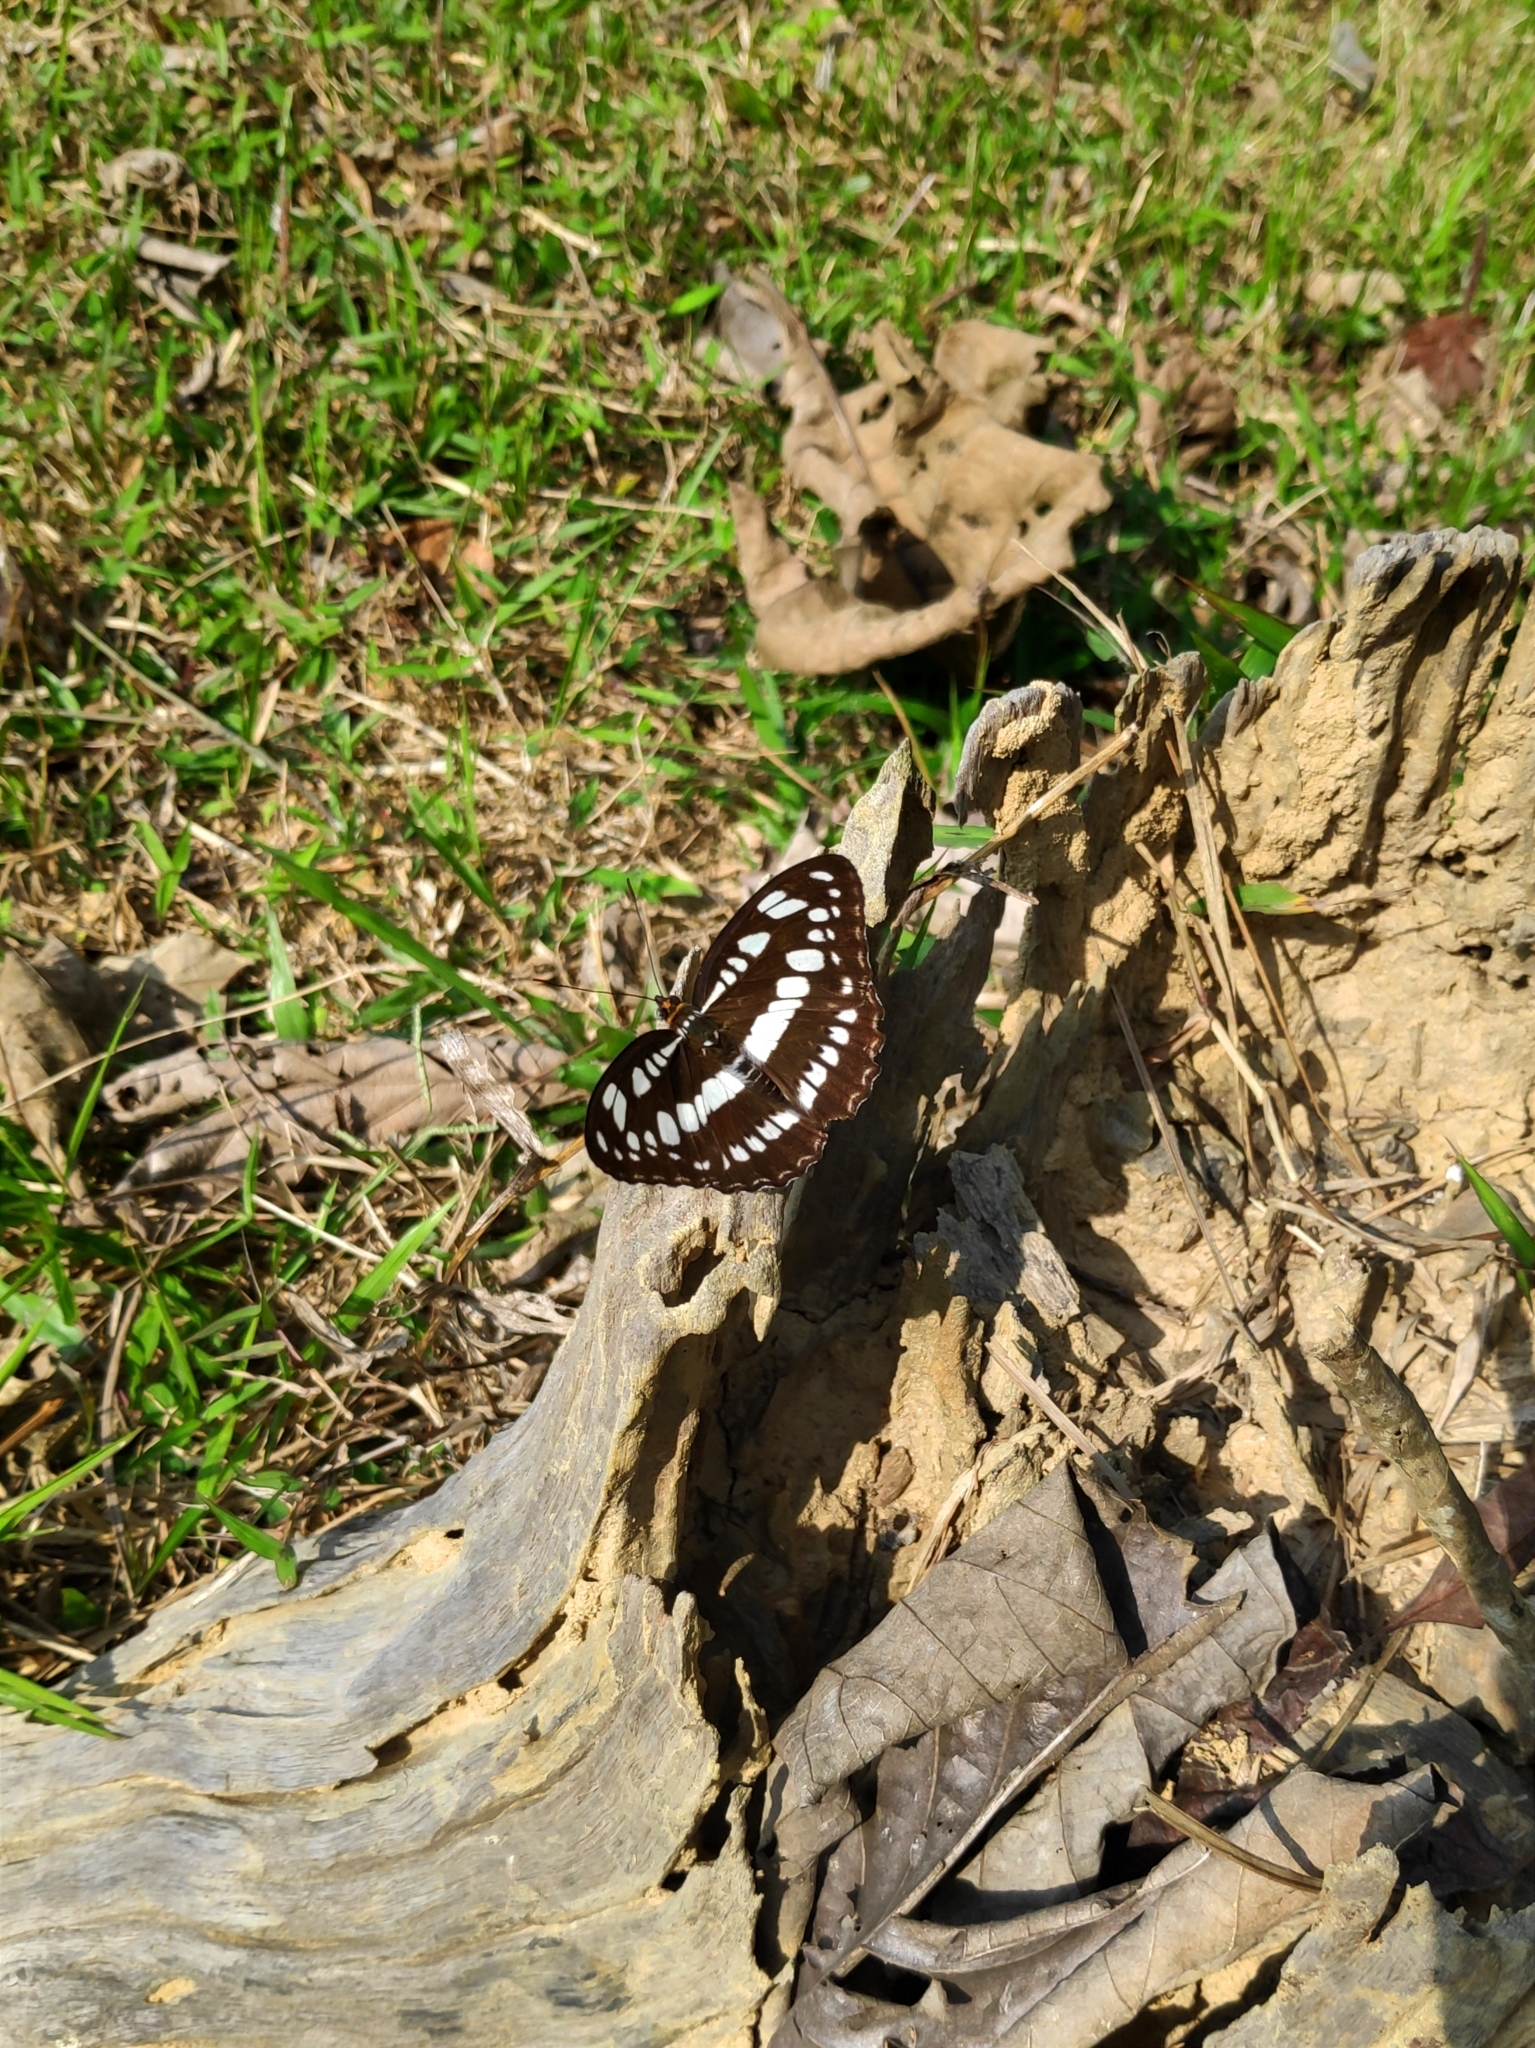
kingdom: Animalia
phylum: Arthropoda
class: Insecta
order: Lepidoptera
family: Nymphalidae
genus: Parathyma
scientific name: Parathyma perius
